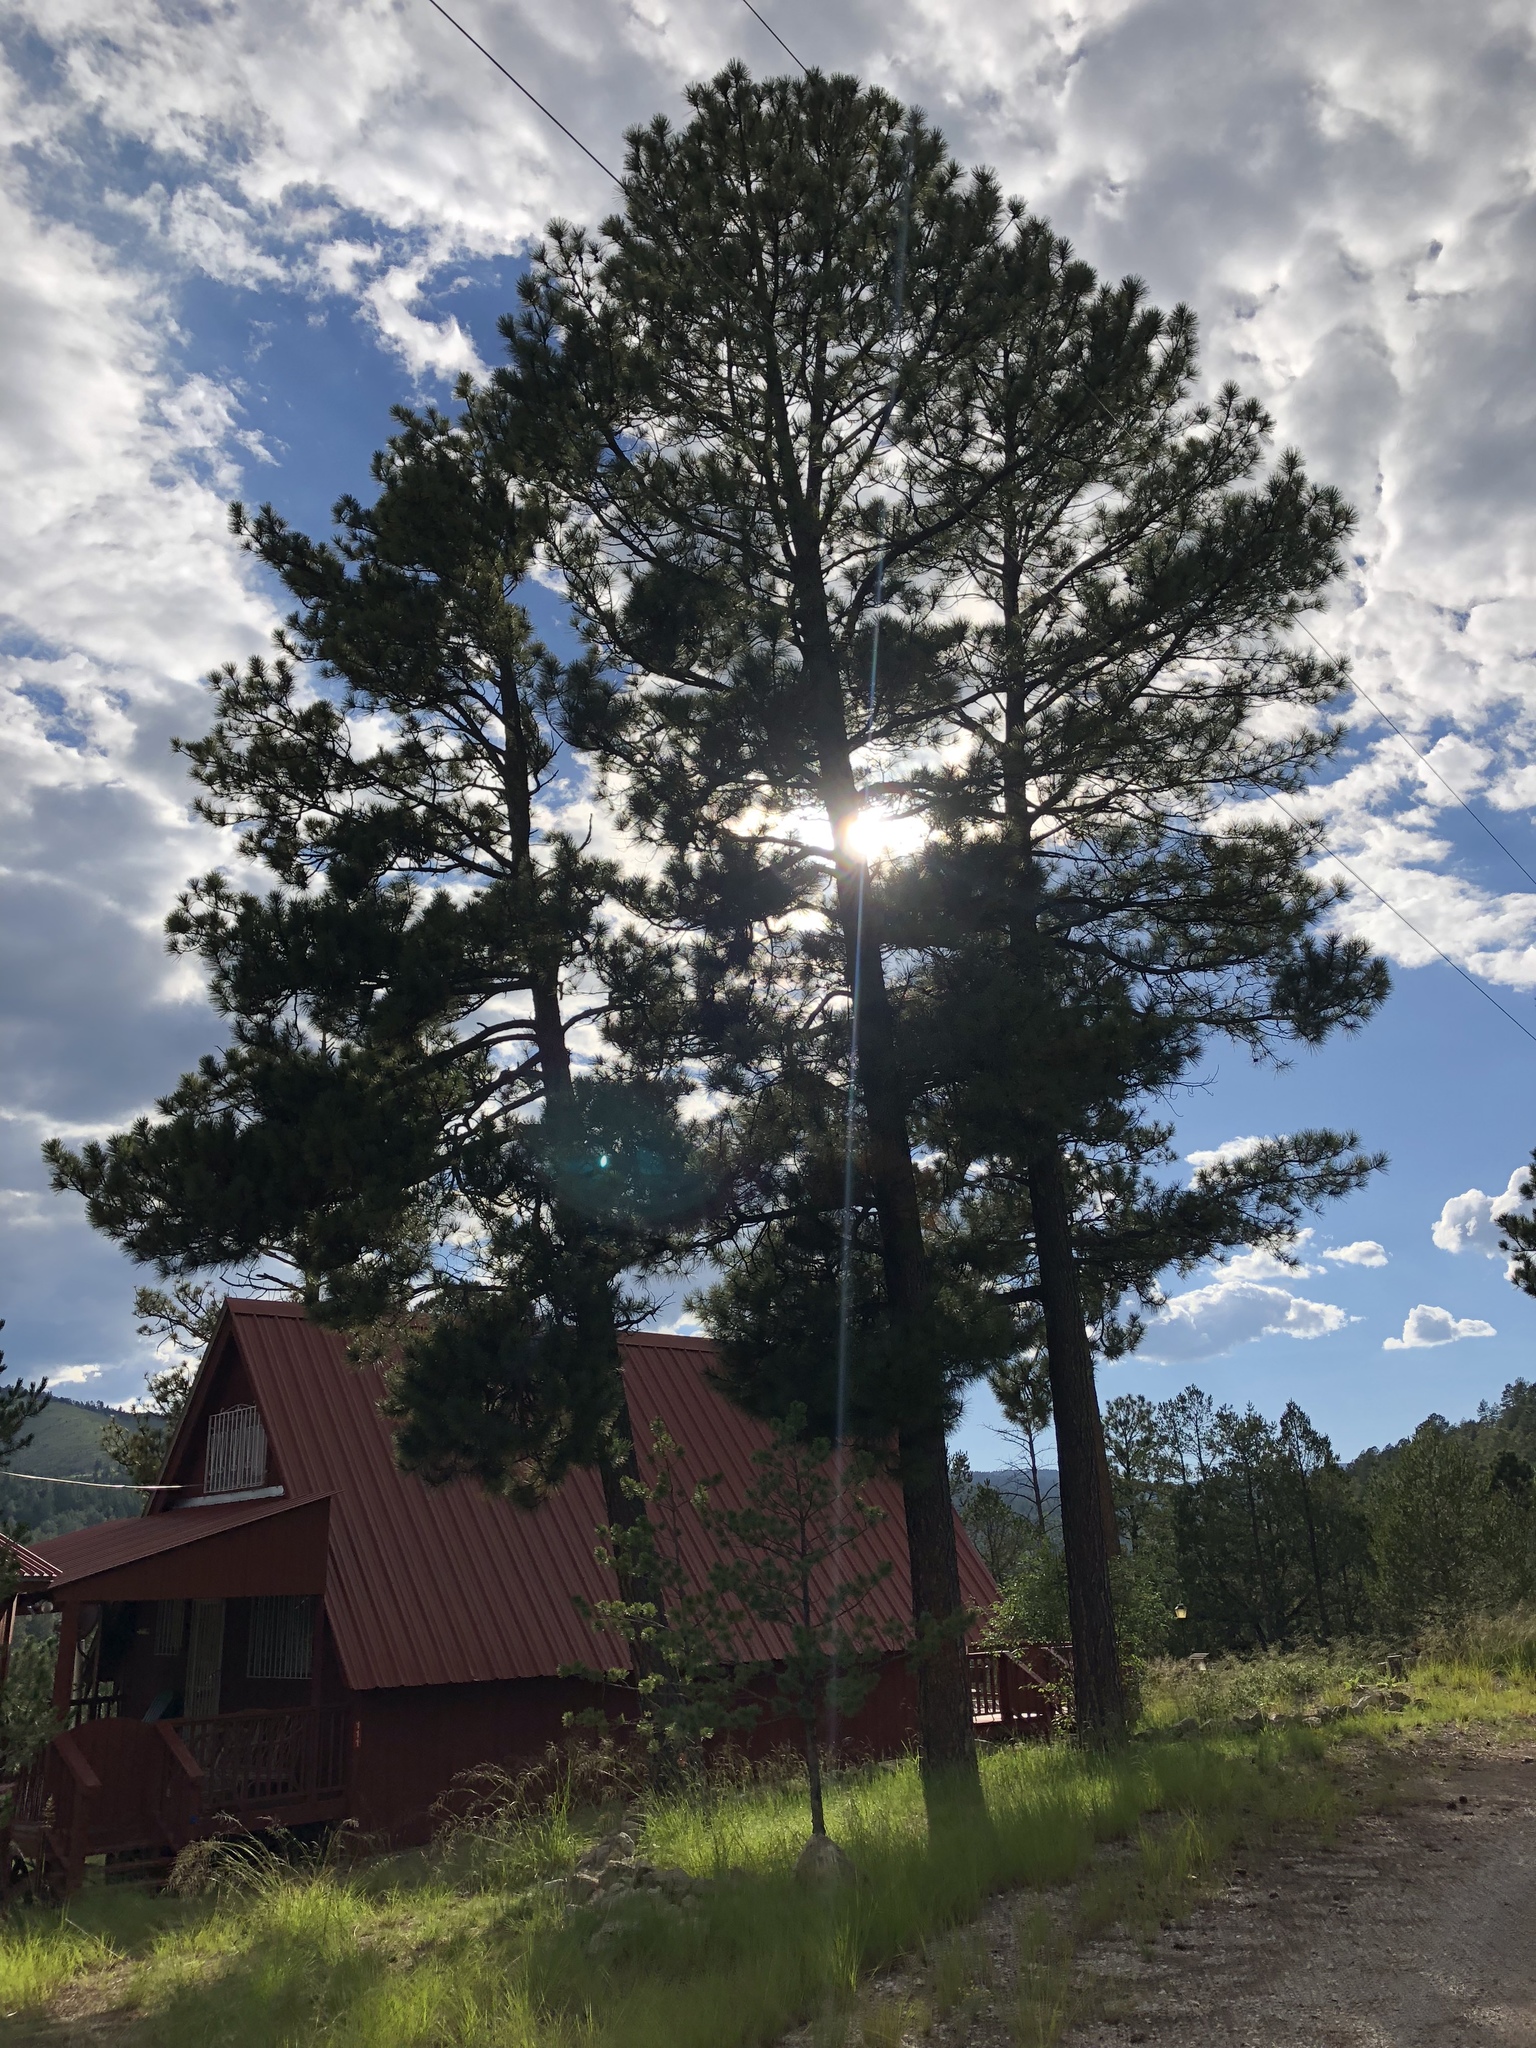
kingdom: Plantae
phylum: Tracheophyta
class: Pinopsida
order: Pinales
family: Pinaceae
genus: Pinus
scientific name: Pinus ponderosa
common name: Western yellow-pine
